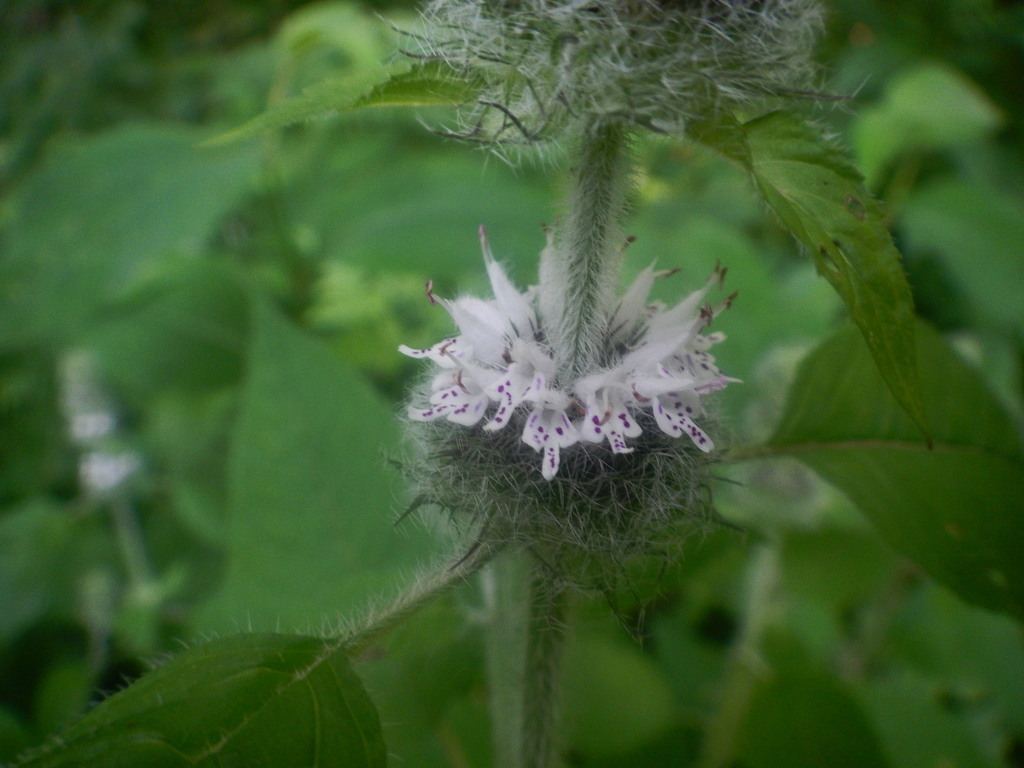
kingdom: Plantae
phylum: Tracheophyta
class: Magnoliopsida
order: Lamiales
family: Lamiaceae
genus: Blephilia
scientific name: Blephilia hirsuta
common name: Hairy blephilia
